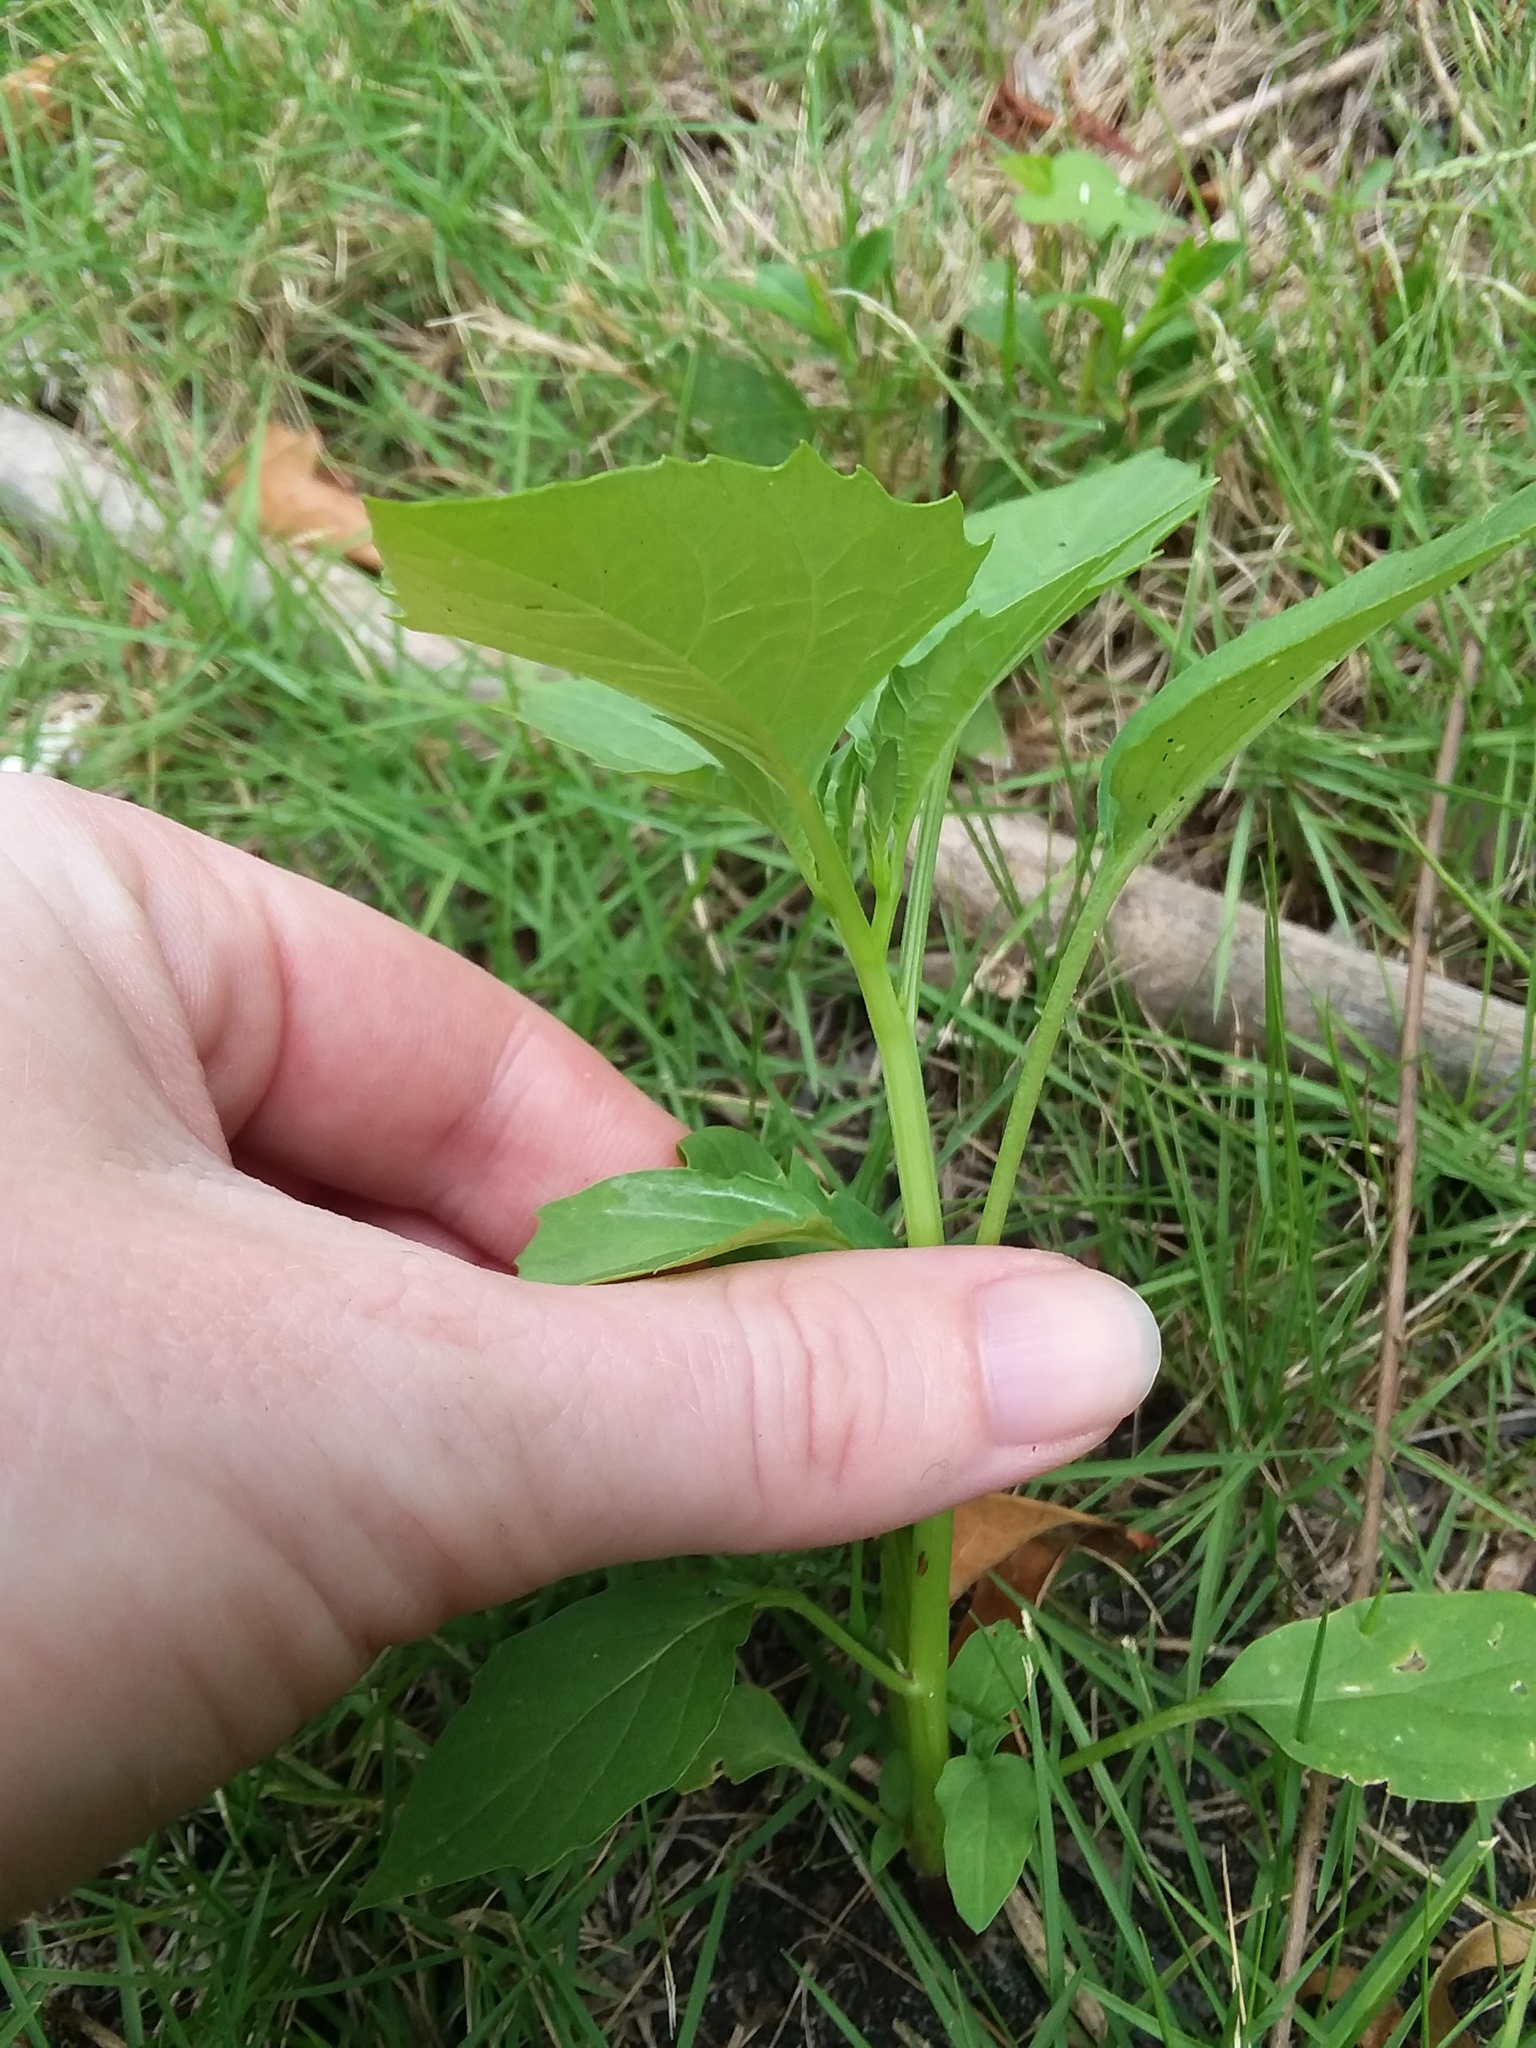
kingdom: Plantae
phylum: Tracheophyta
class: Magnoliopsida
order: Solanales
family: Solanaceae
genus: Physalis
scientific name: Physalis angulata
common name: Angular winter-cherry
